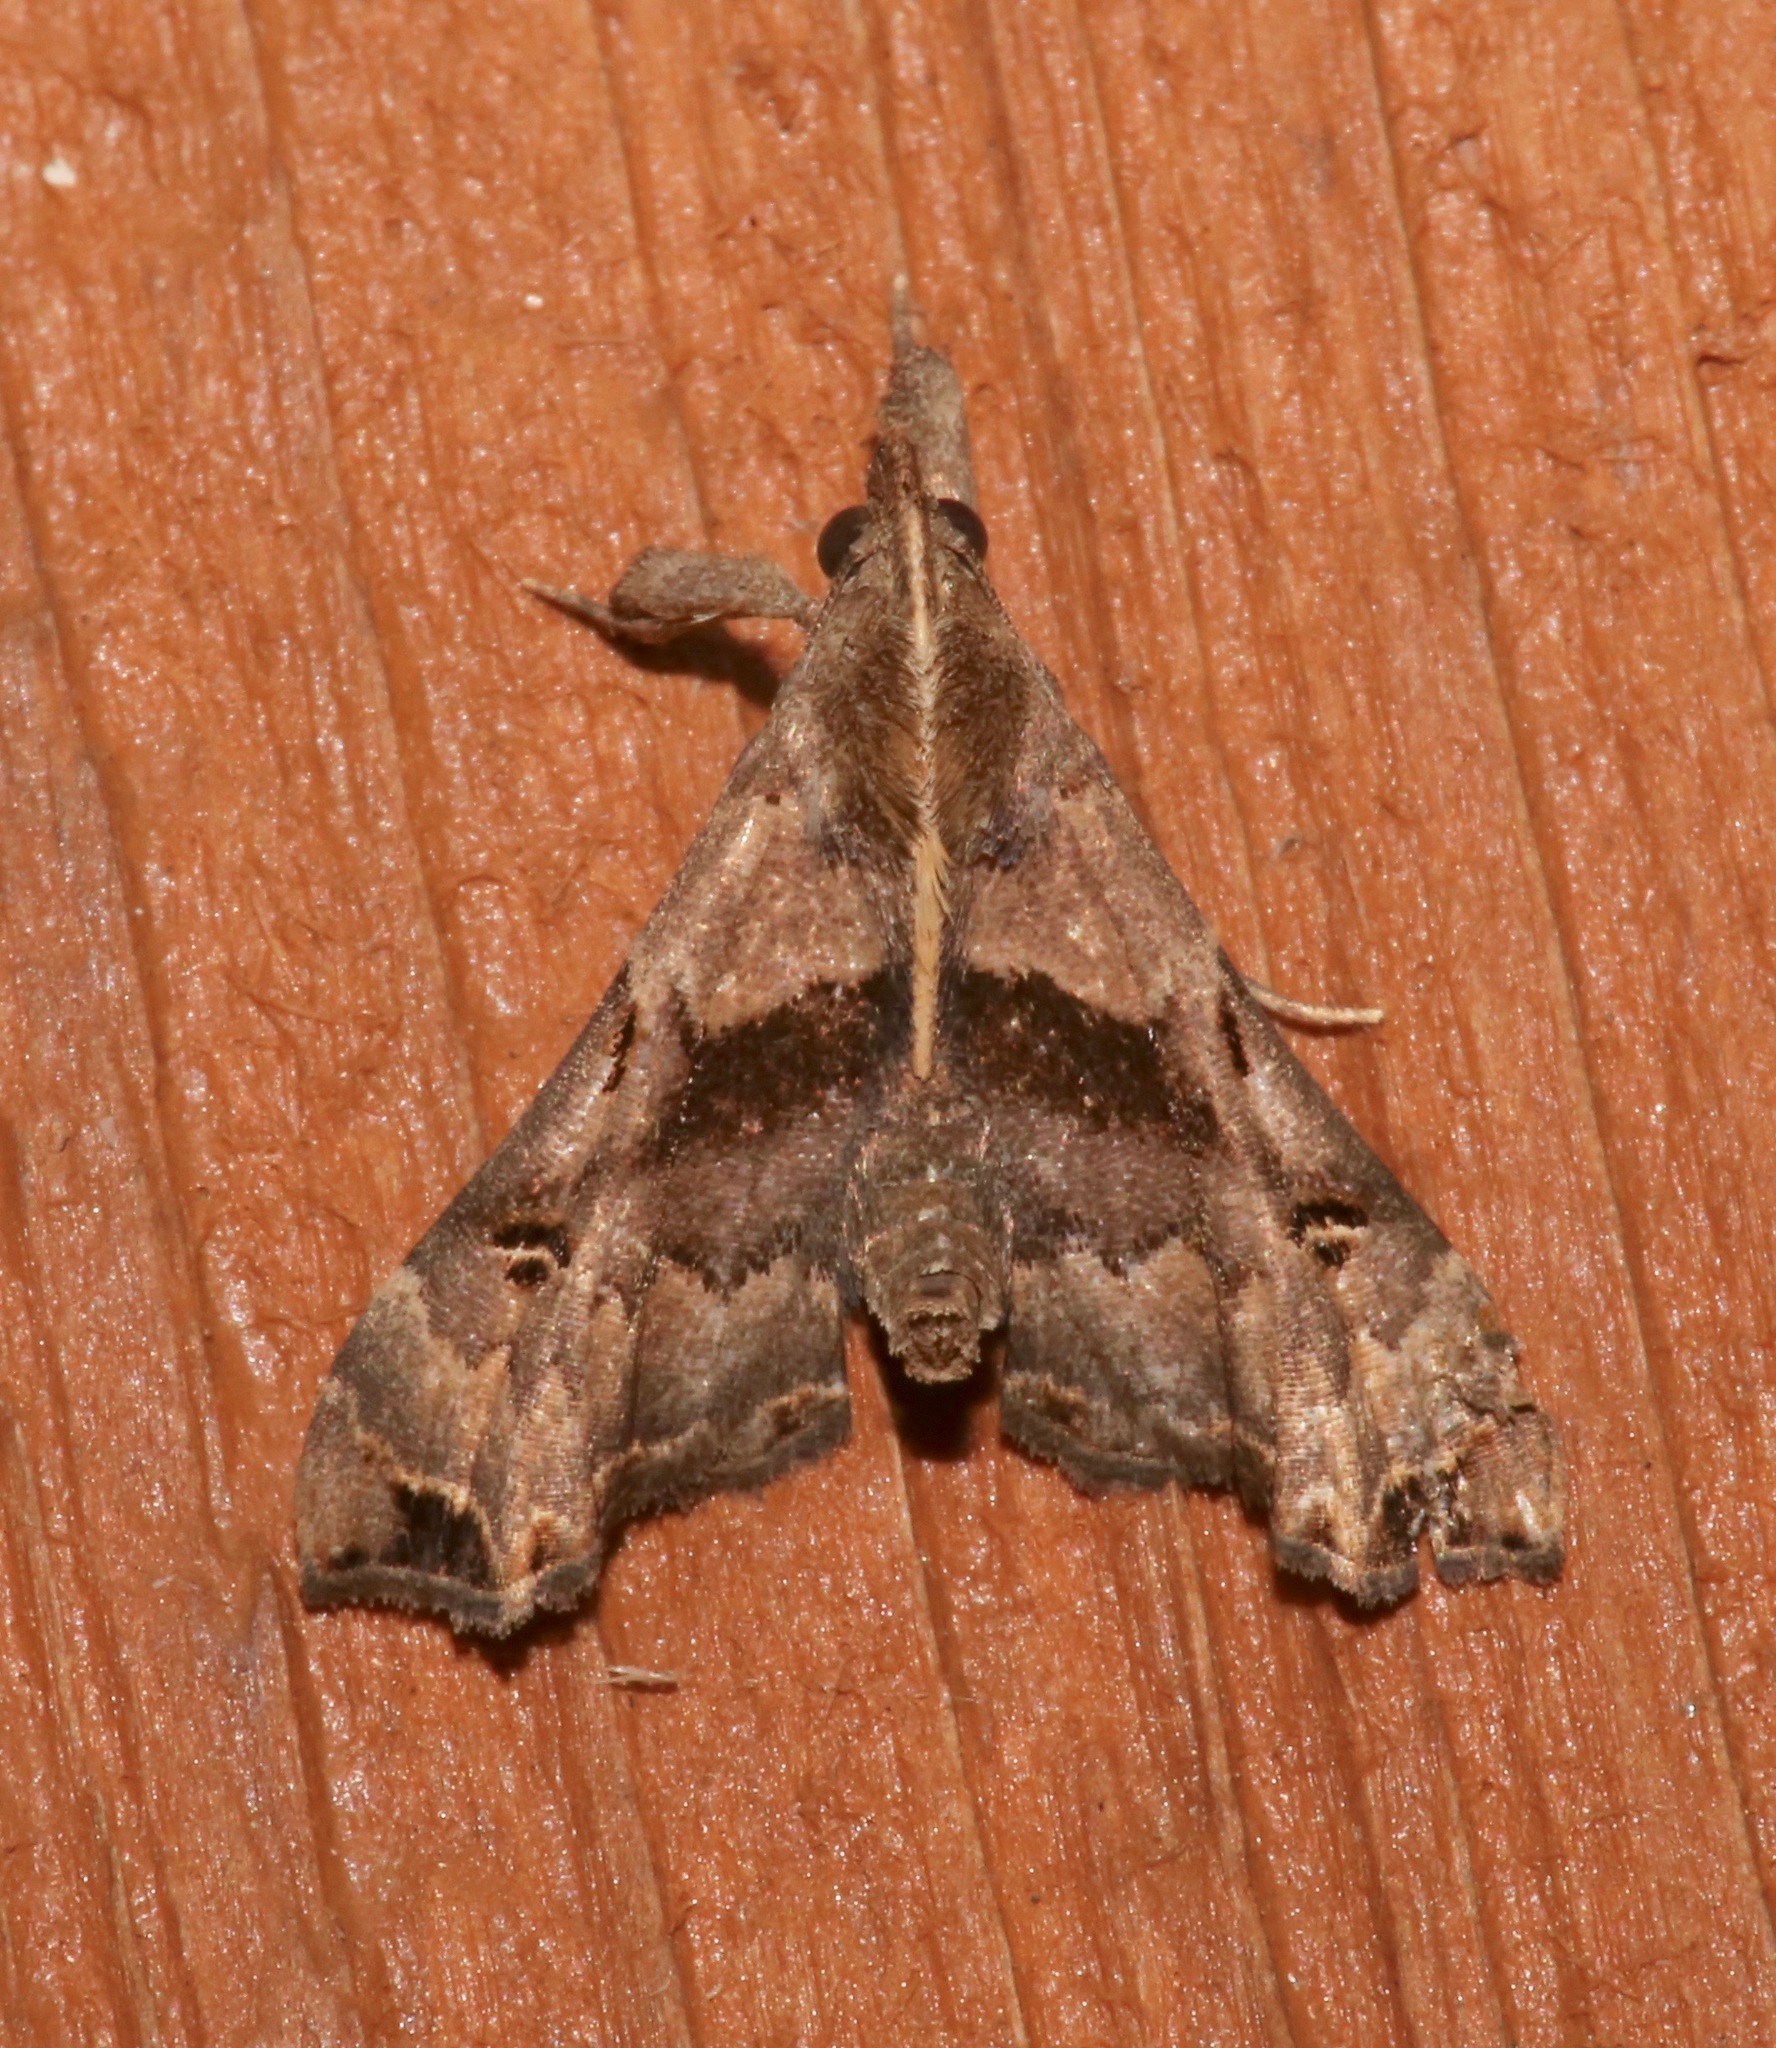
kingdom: Animalia
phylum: Arthropoda
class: Insecta
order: Lepidoptera
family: Erebidae
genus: Palthis
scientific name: Palthis asopialis
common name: Faint-spotted palthis moth
